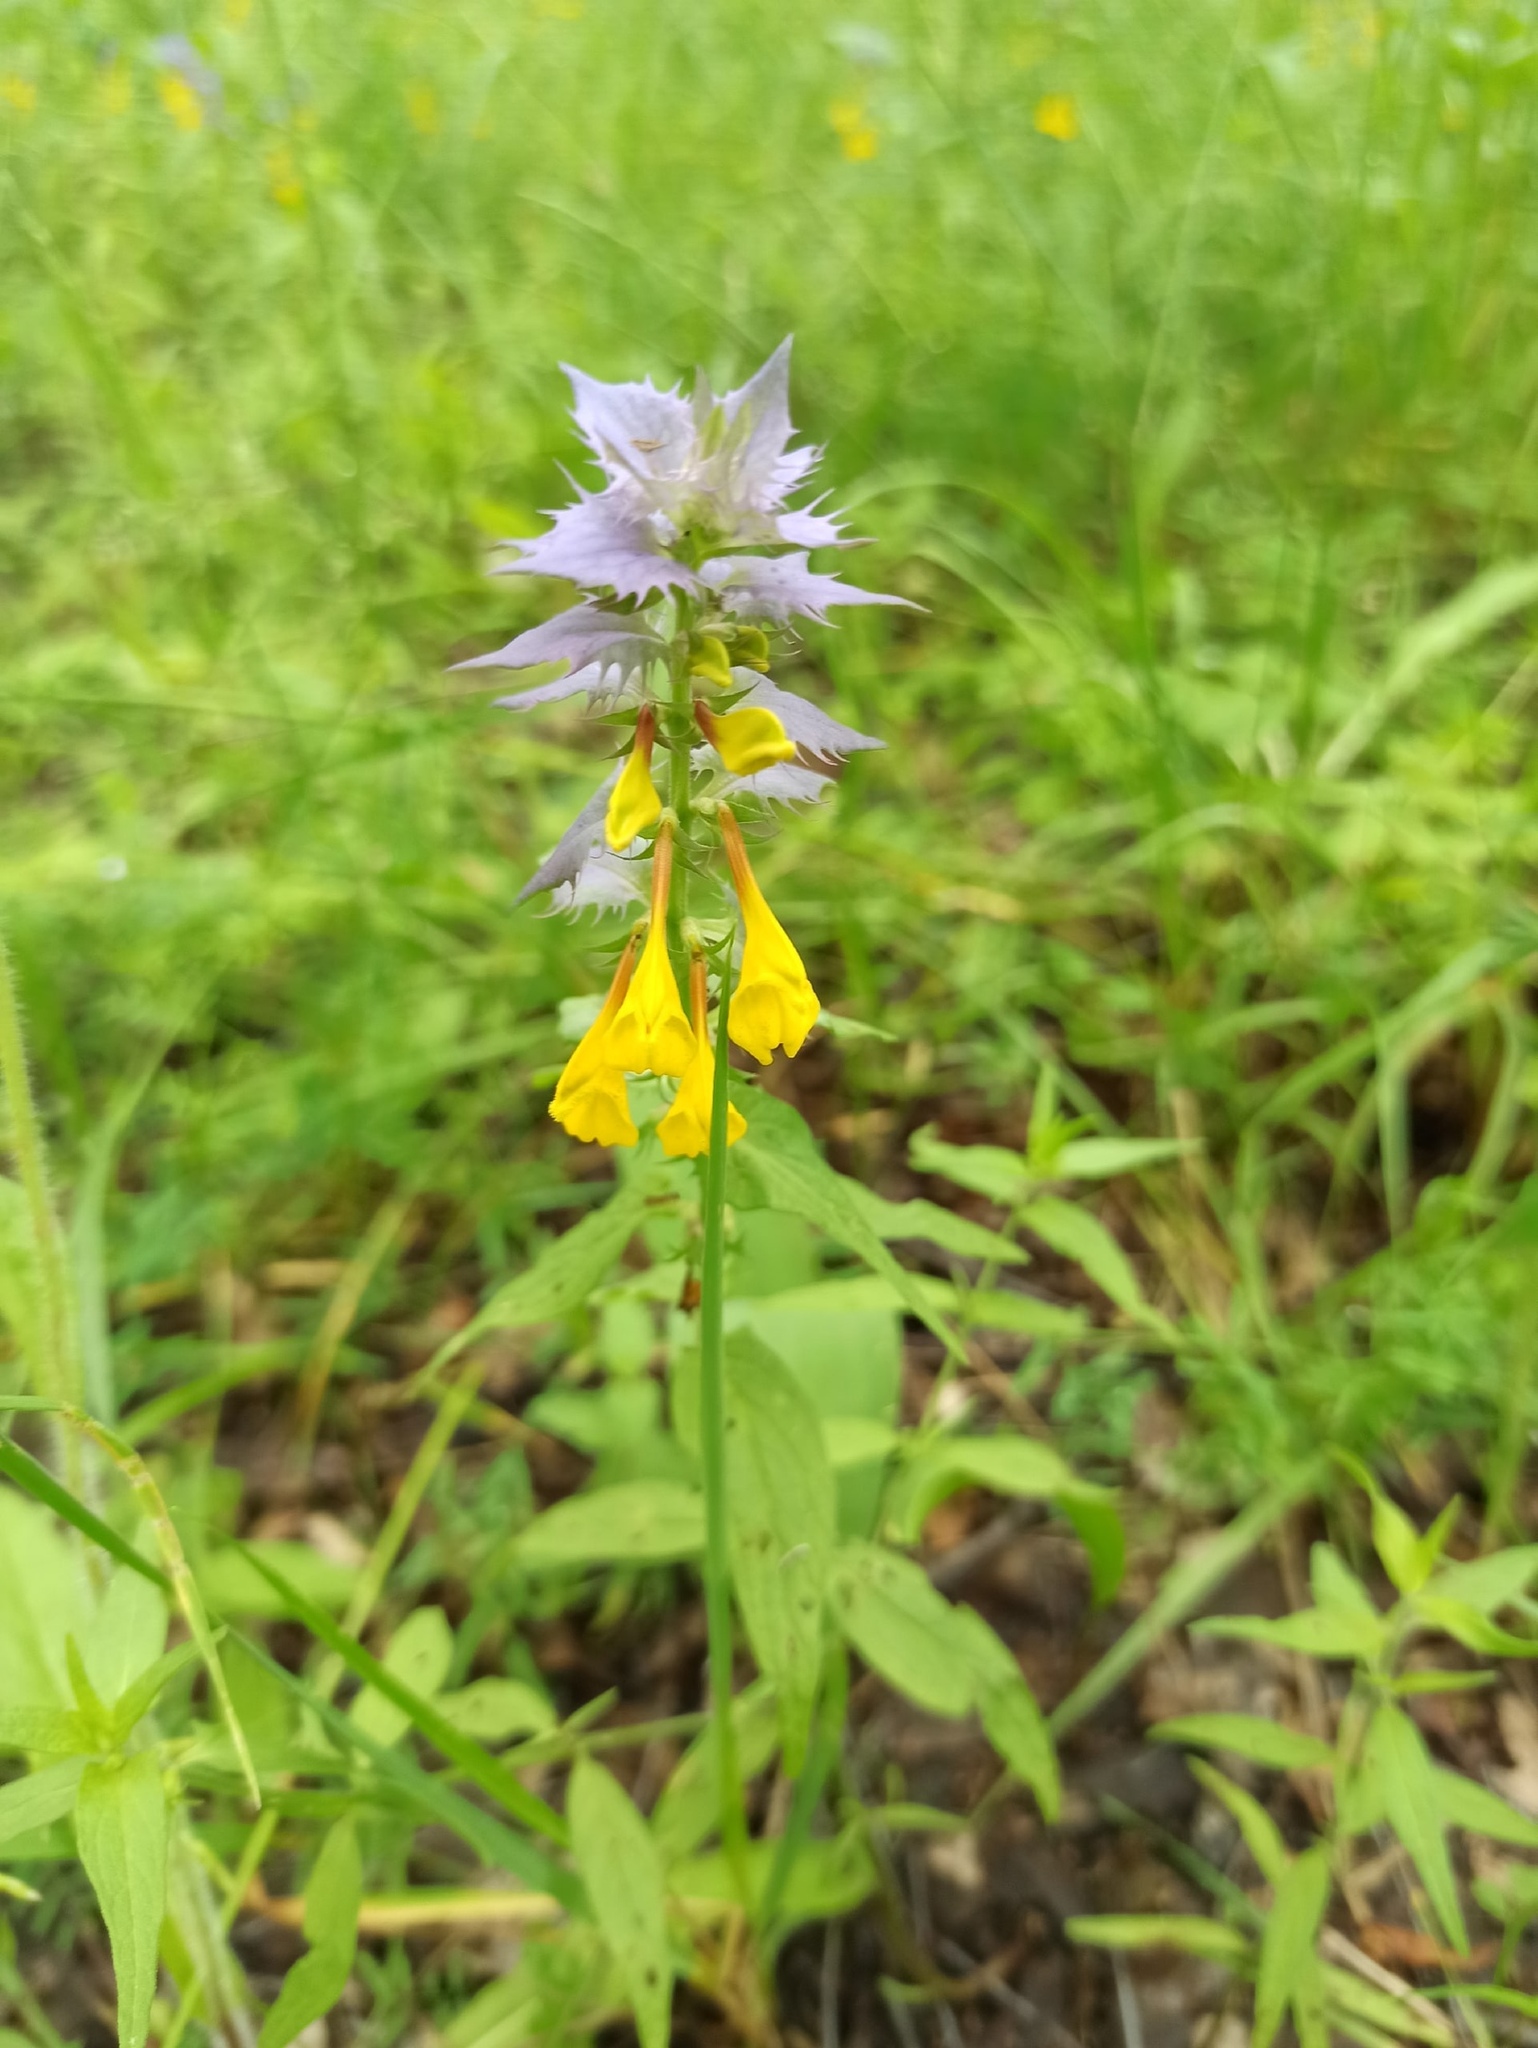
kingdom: Plantae
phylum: Tracheophyta
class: Magnoliopsida
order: Lamiales
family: Orobanchaceae
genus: Melampyrum
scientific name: Melampyrum nemorosum
